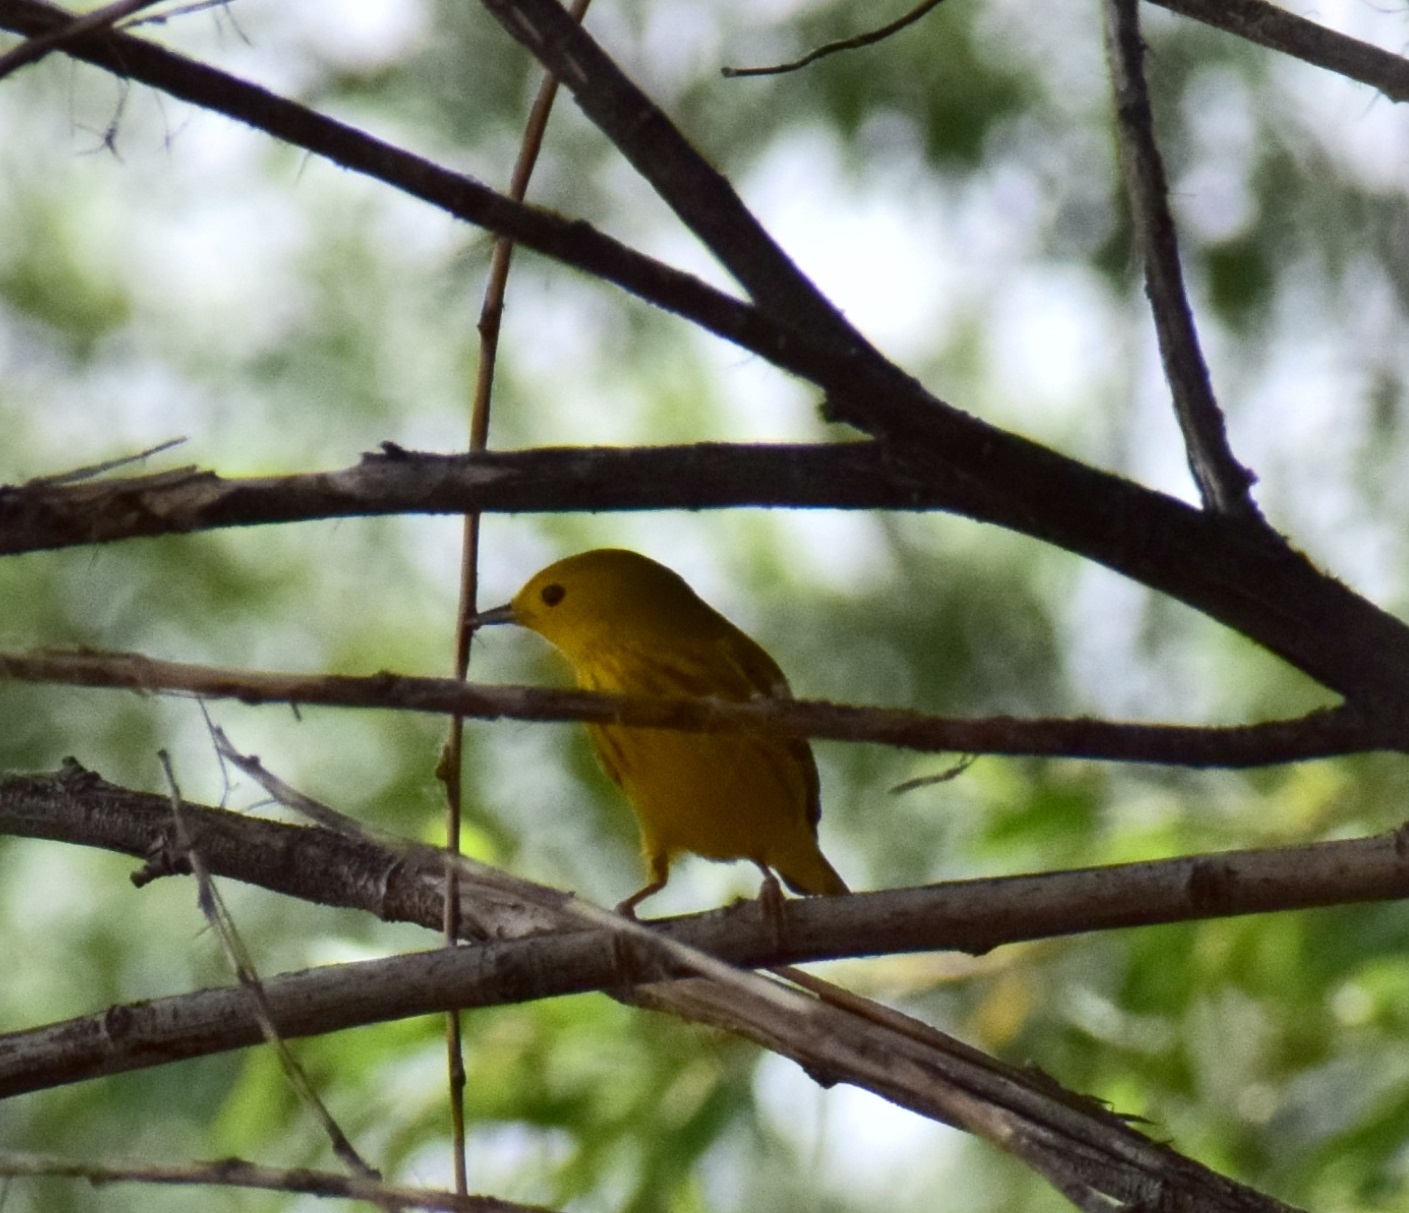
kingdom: Animalia
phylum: Chordata
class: Aves
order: Passeriformes
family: Parulidae
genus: Setophaga
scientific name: Setophaga petechia
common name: Yellow warbler
